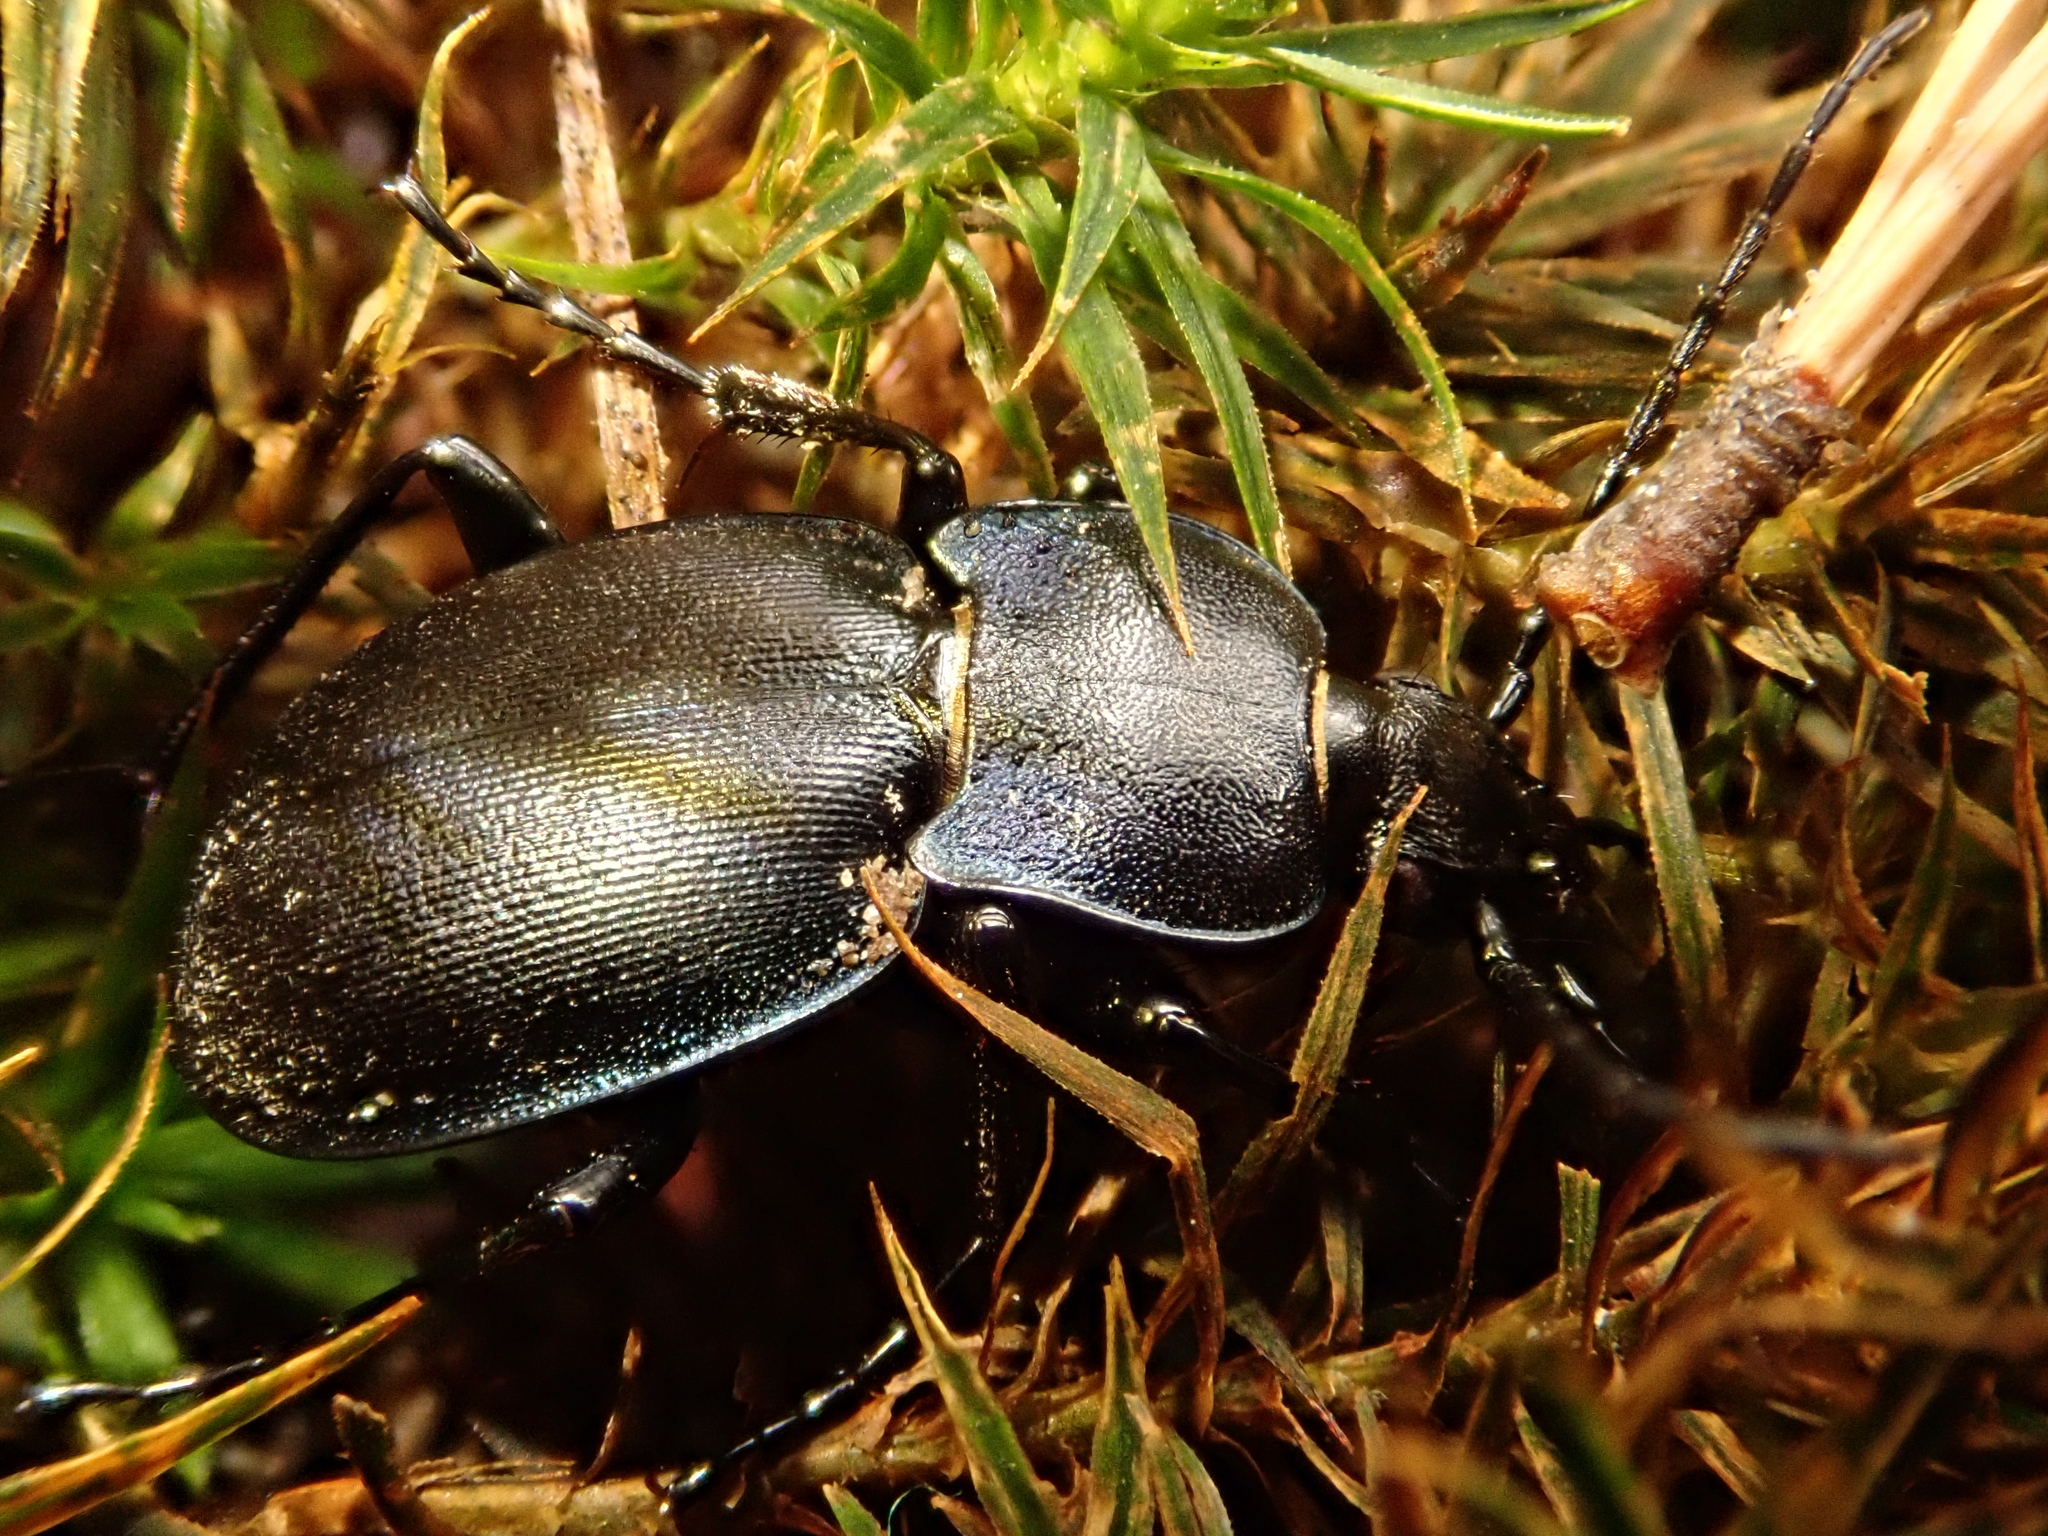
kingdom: Animalia
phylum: Arthropoda
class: Insecta
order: Coleoptera
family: Carabidae
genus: Carabus
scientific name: Carabus convexus
